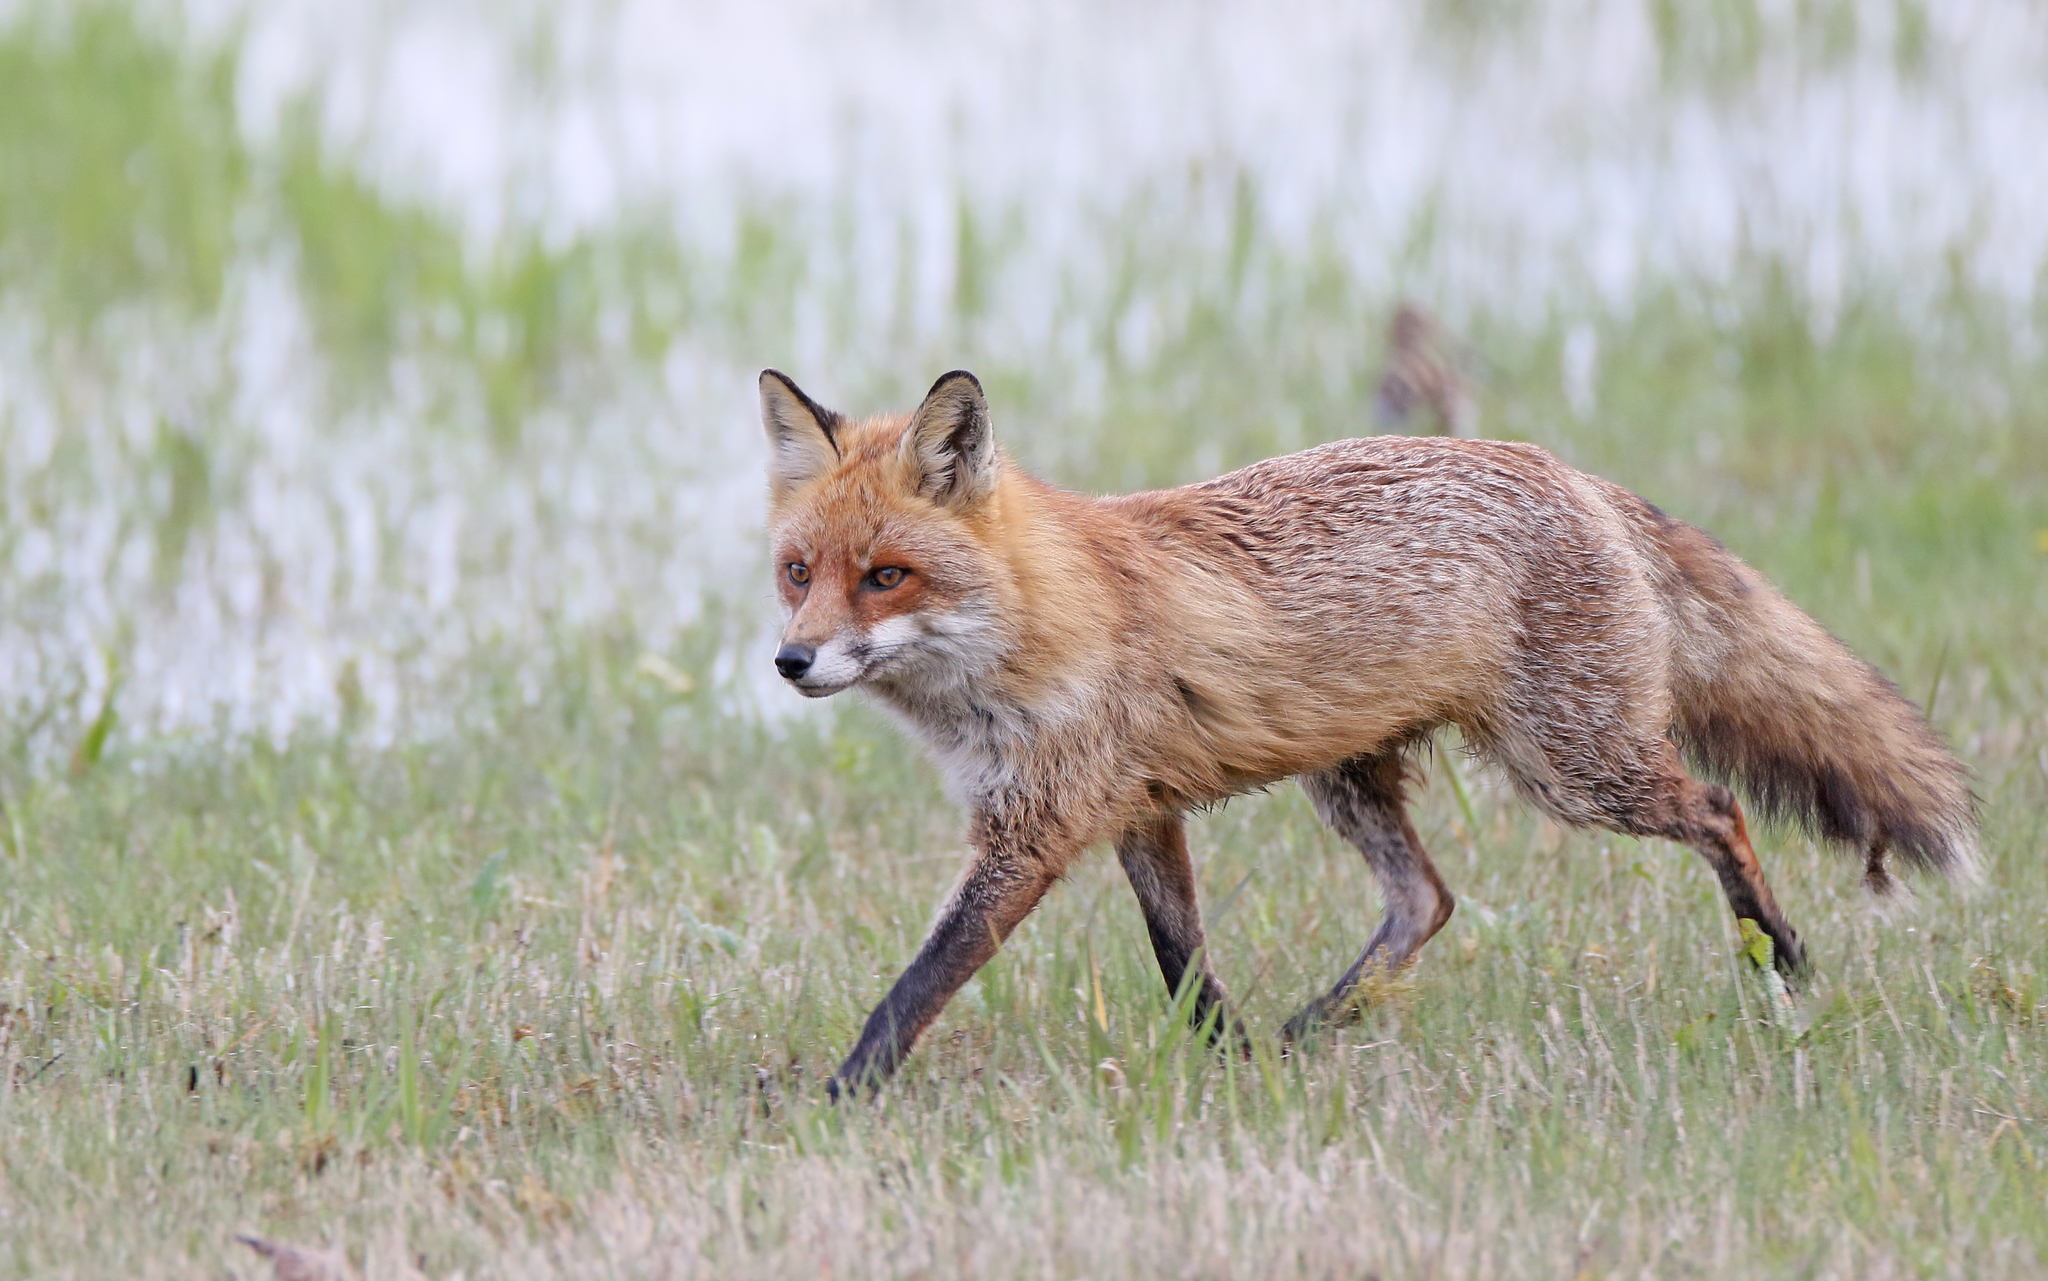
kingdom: Animalia
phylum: Chordata
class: Mammalia
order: Carnivora
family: Canidae
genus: Vulpes
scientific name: Vulpes vulpes
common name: Red fox
